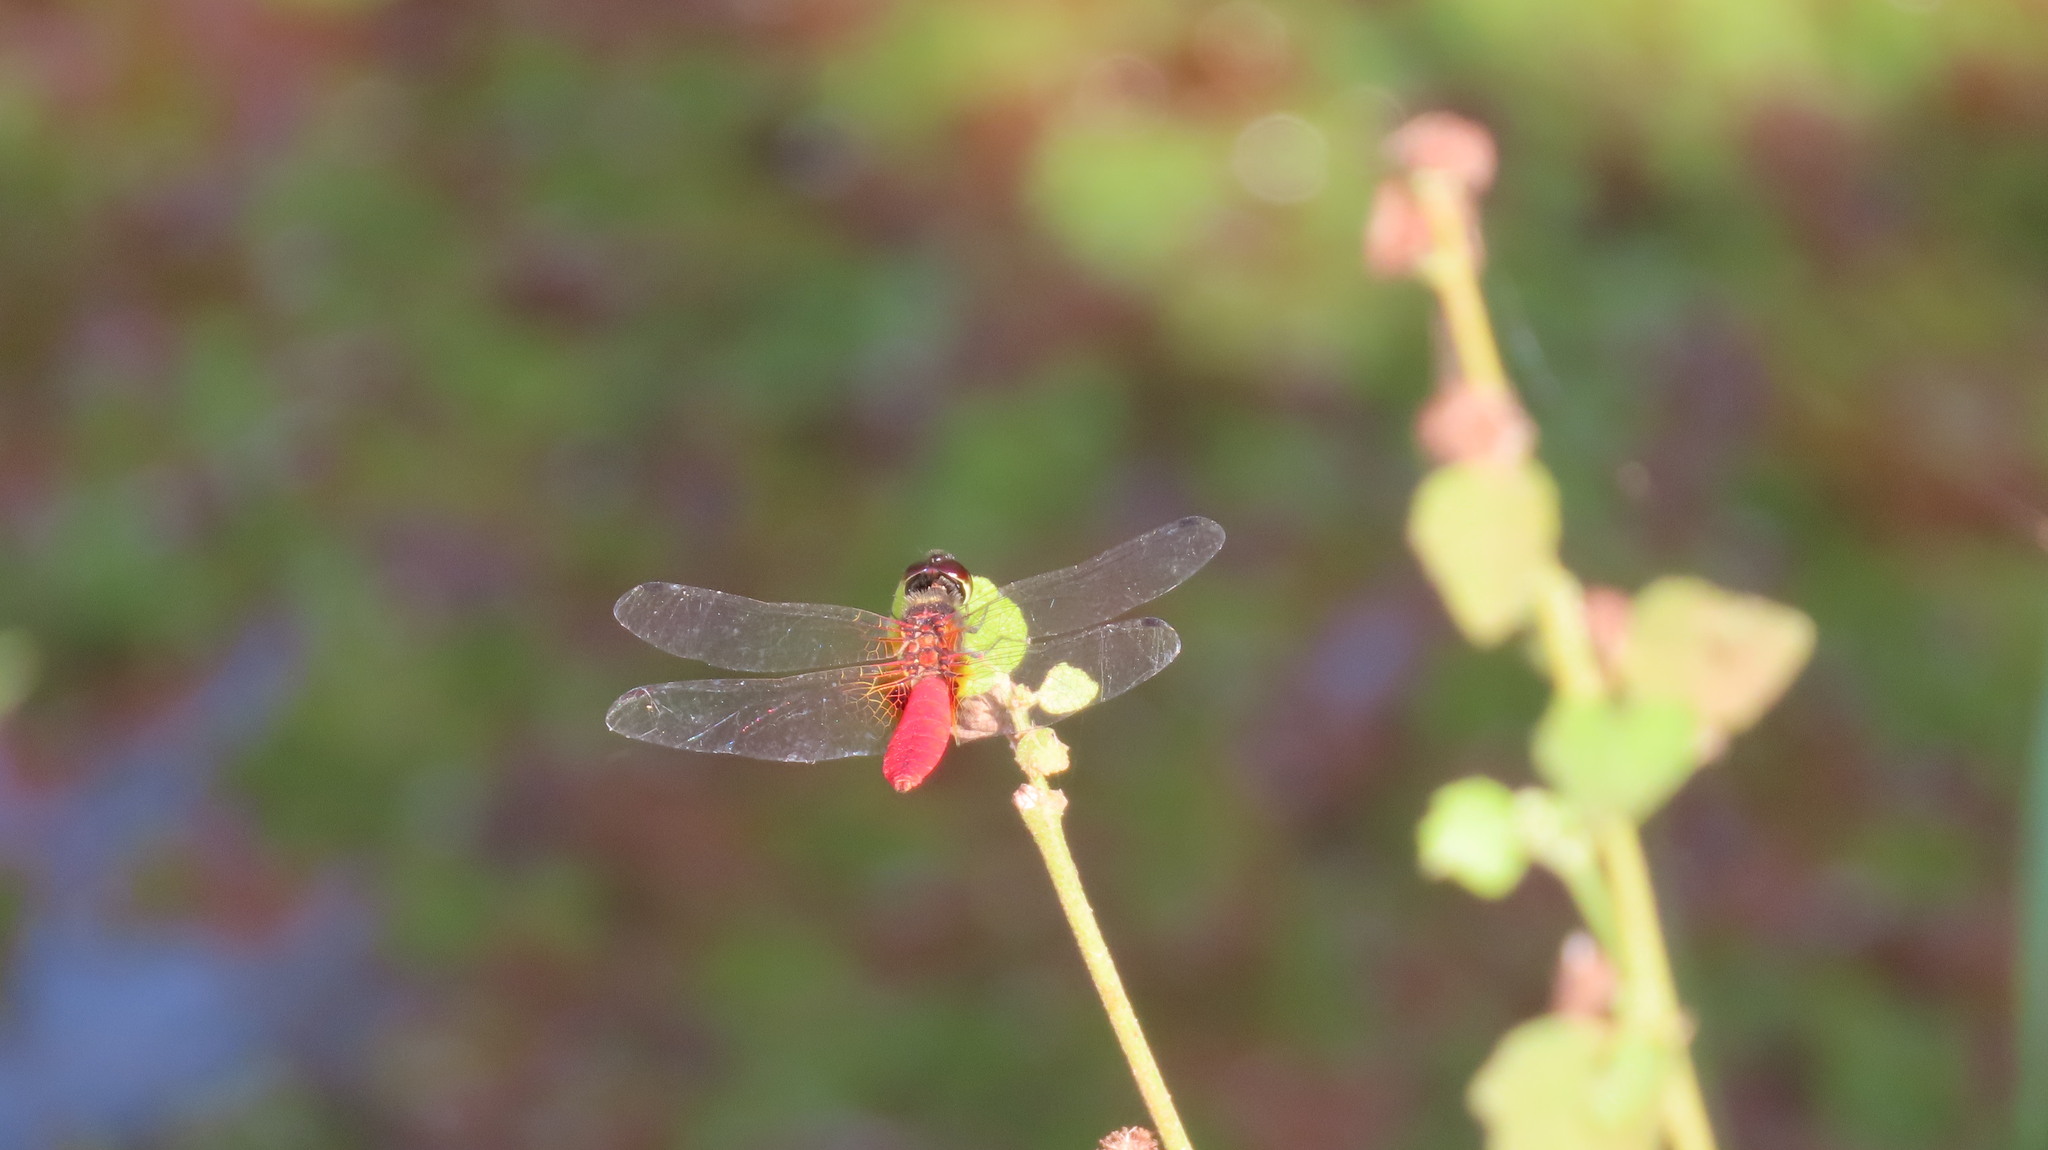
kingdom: Animalia
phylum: Arthropoda
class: Insecta
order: Odonata
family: Libellulidae
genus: Aethriamanta
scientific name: Aethriamanta brevipennis
